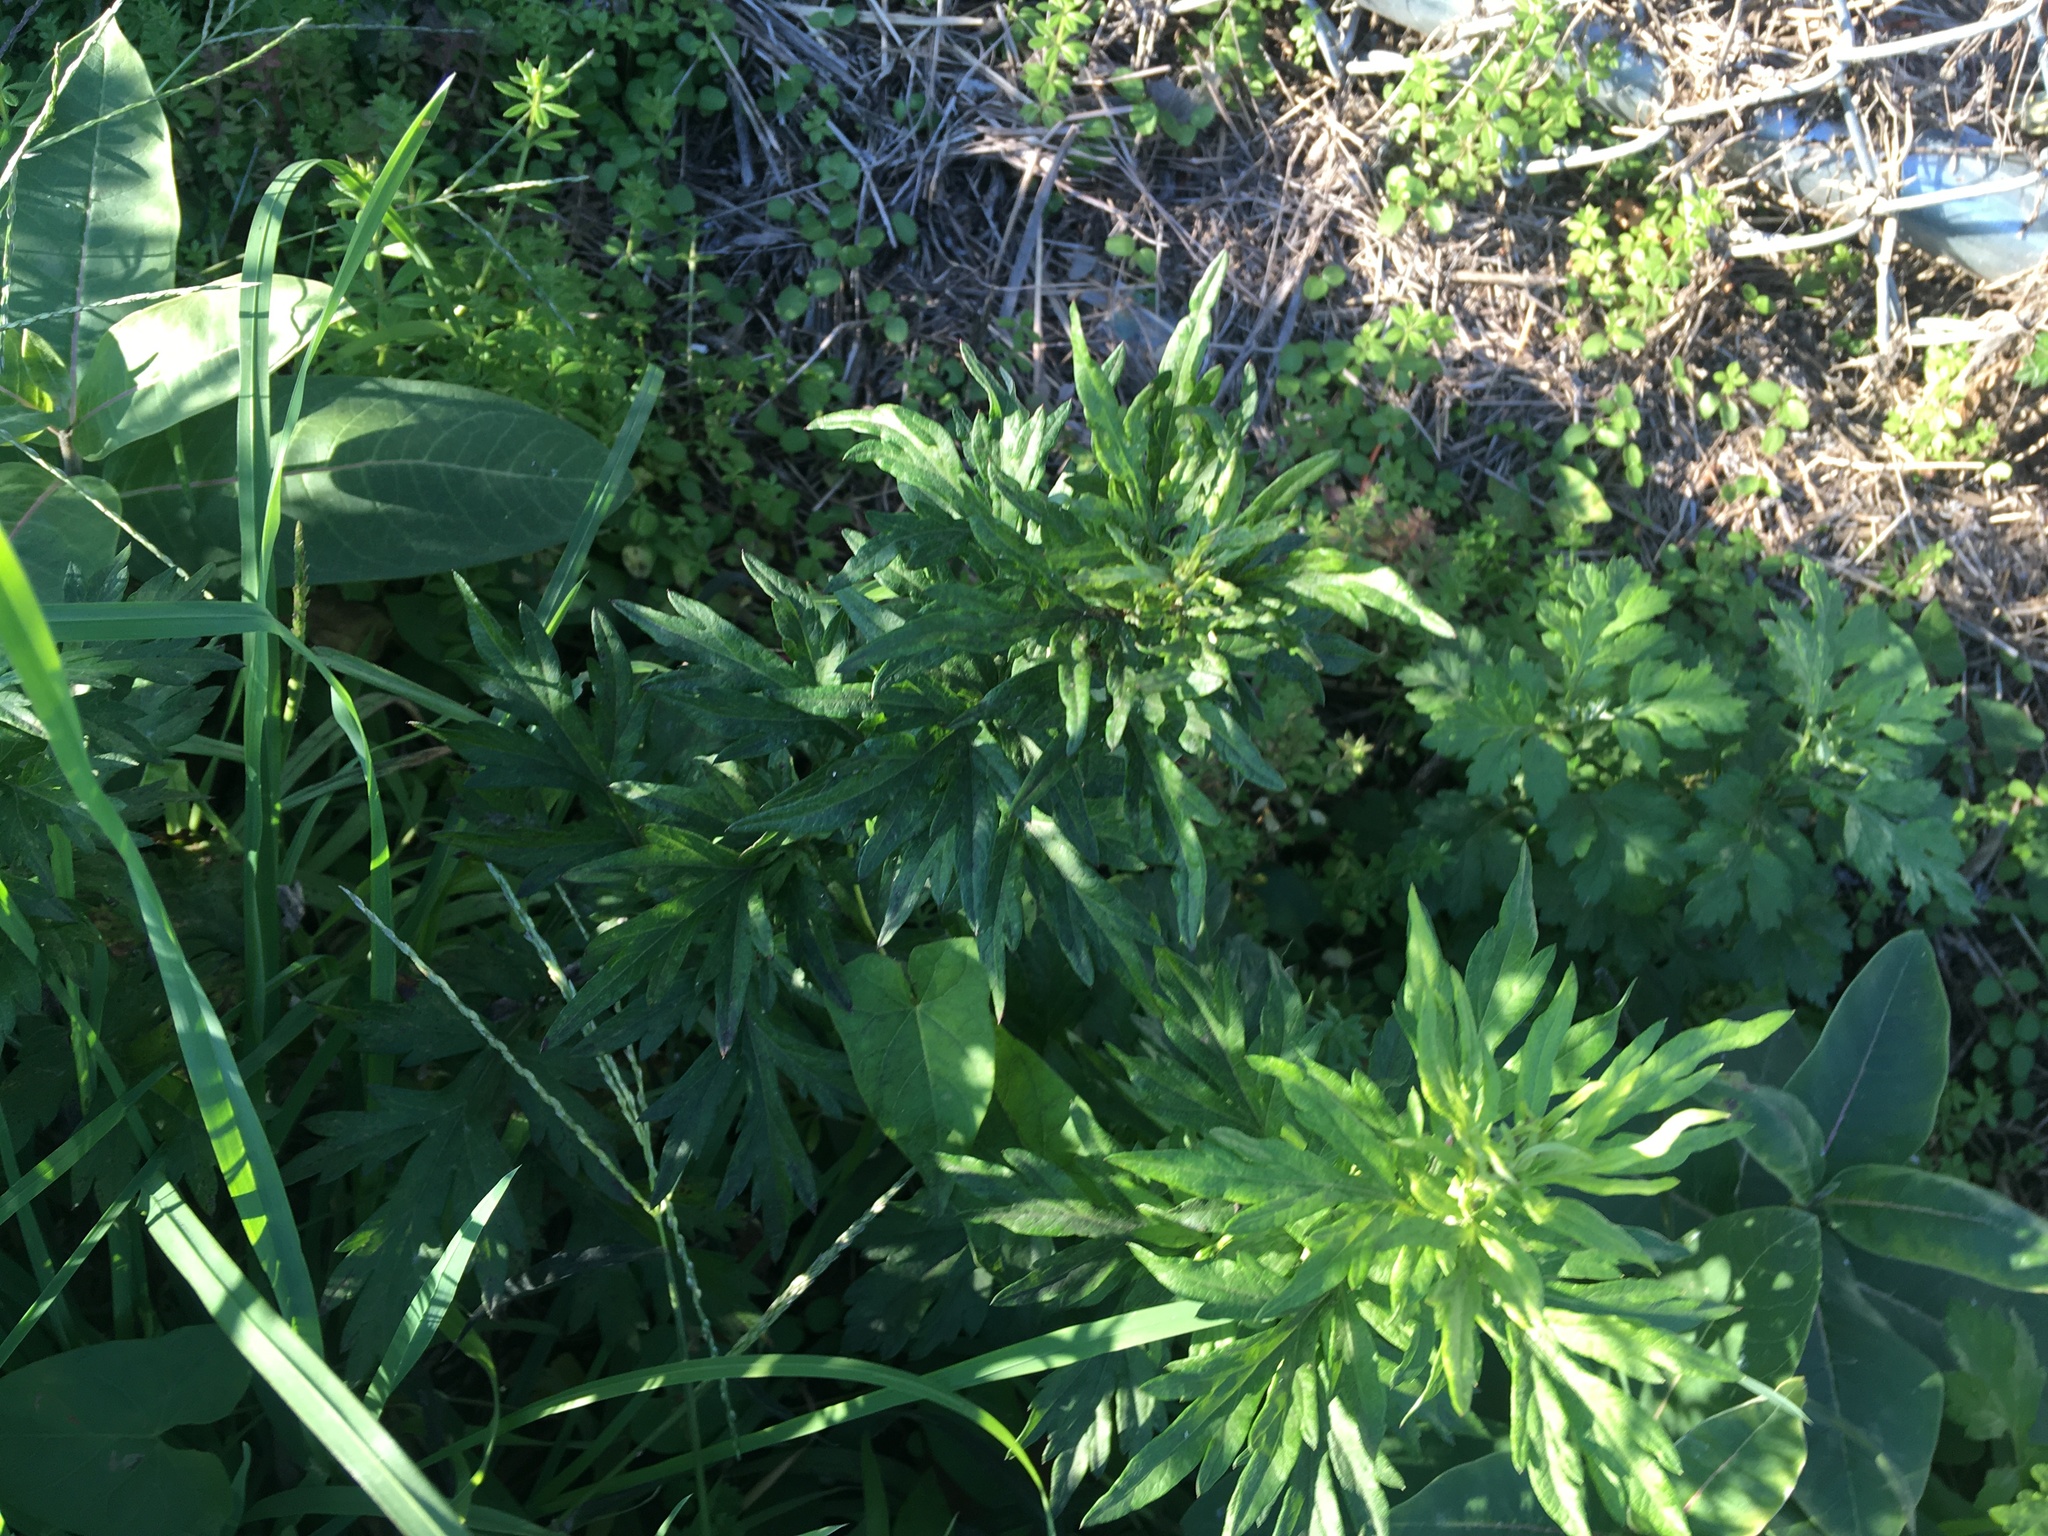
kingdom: Plantae
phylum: Tracheophyta
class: Magnoliopsida
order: Asterales
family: Asteraceae
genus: Artemisia
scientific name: Artemisia vulgaris
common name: Mugwort
